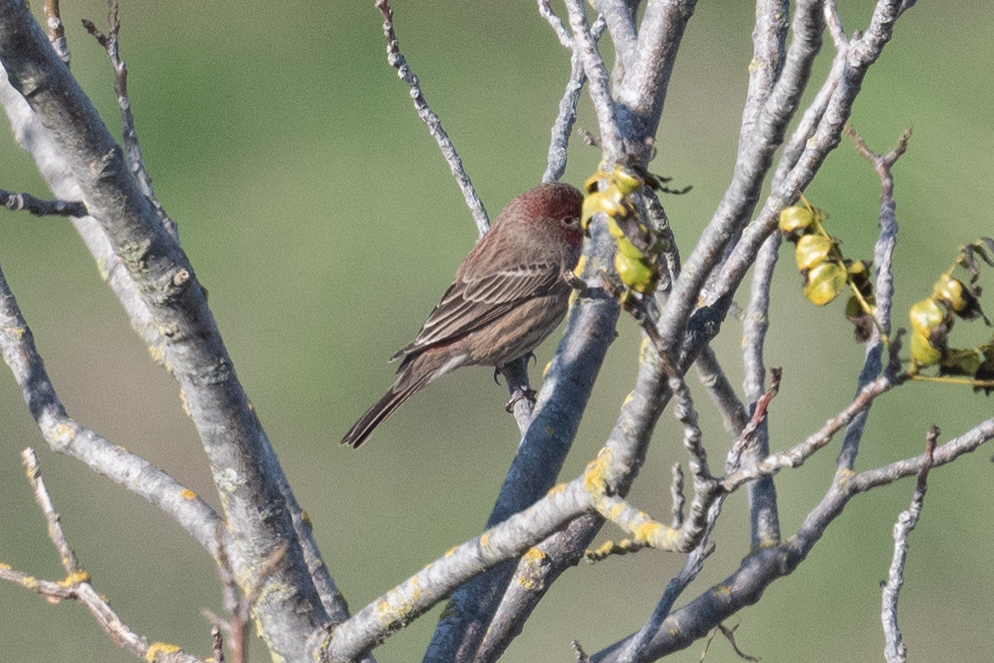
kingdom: Animalia
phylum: Chordata
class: Aves
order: Passeriformes
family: Fringillidae
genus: Haemorhous
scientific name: Haemorhous mexicanus
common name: House finch
